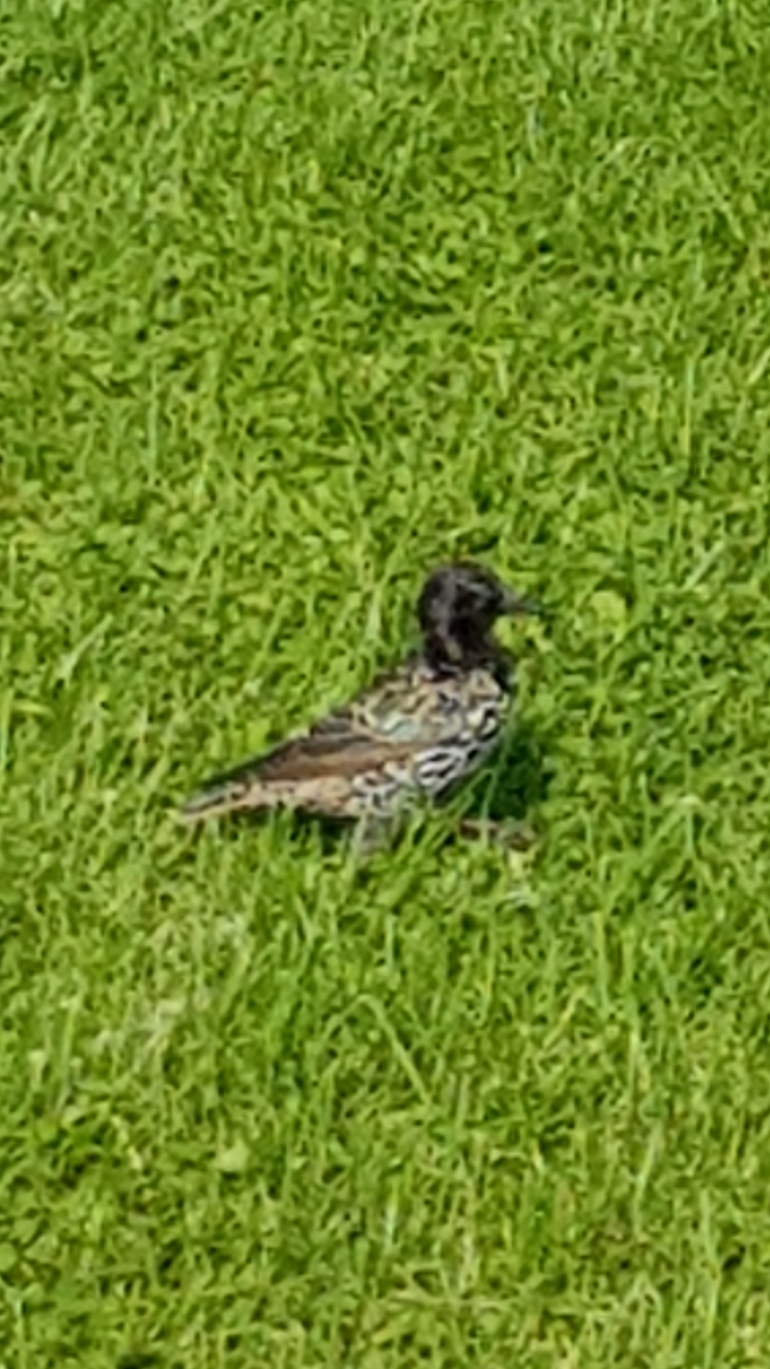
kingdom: Animalia
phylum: Chordata
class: Aves
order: Passeriformes
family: Sturnidae
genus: Sturnus
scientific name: Sturnus vulgaris
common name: Common starling
